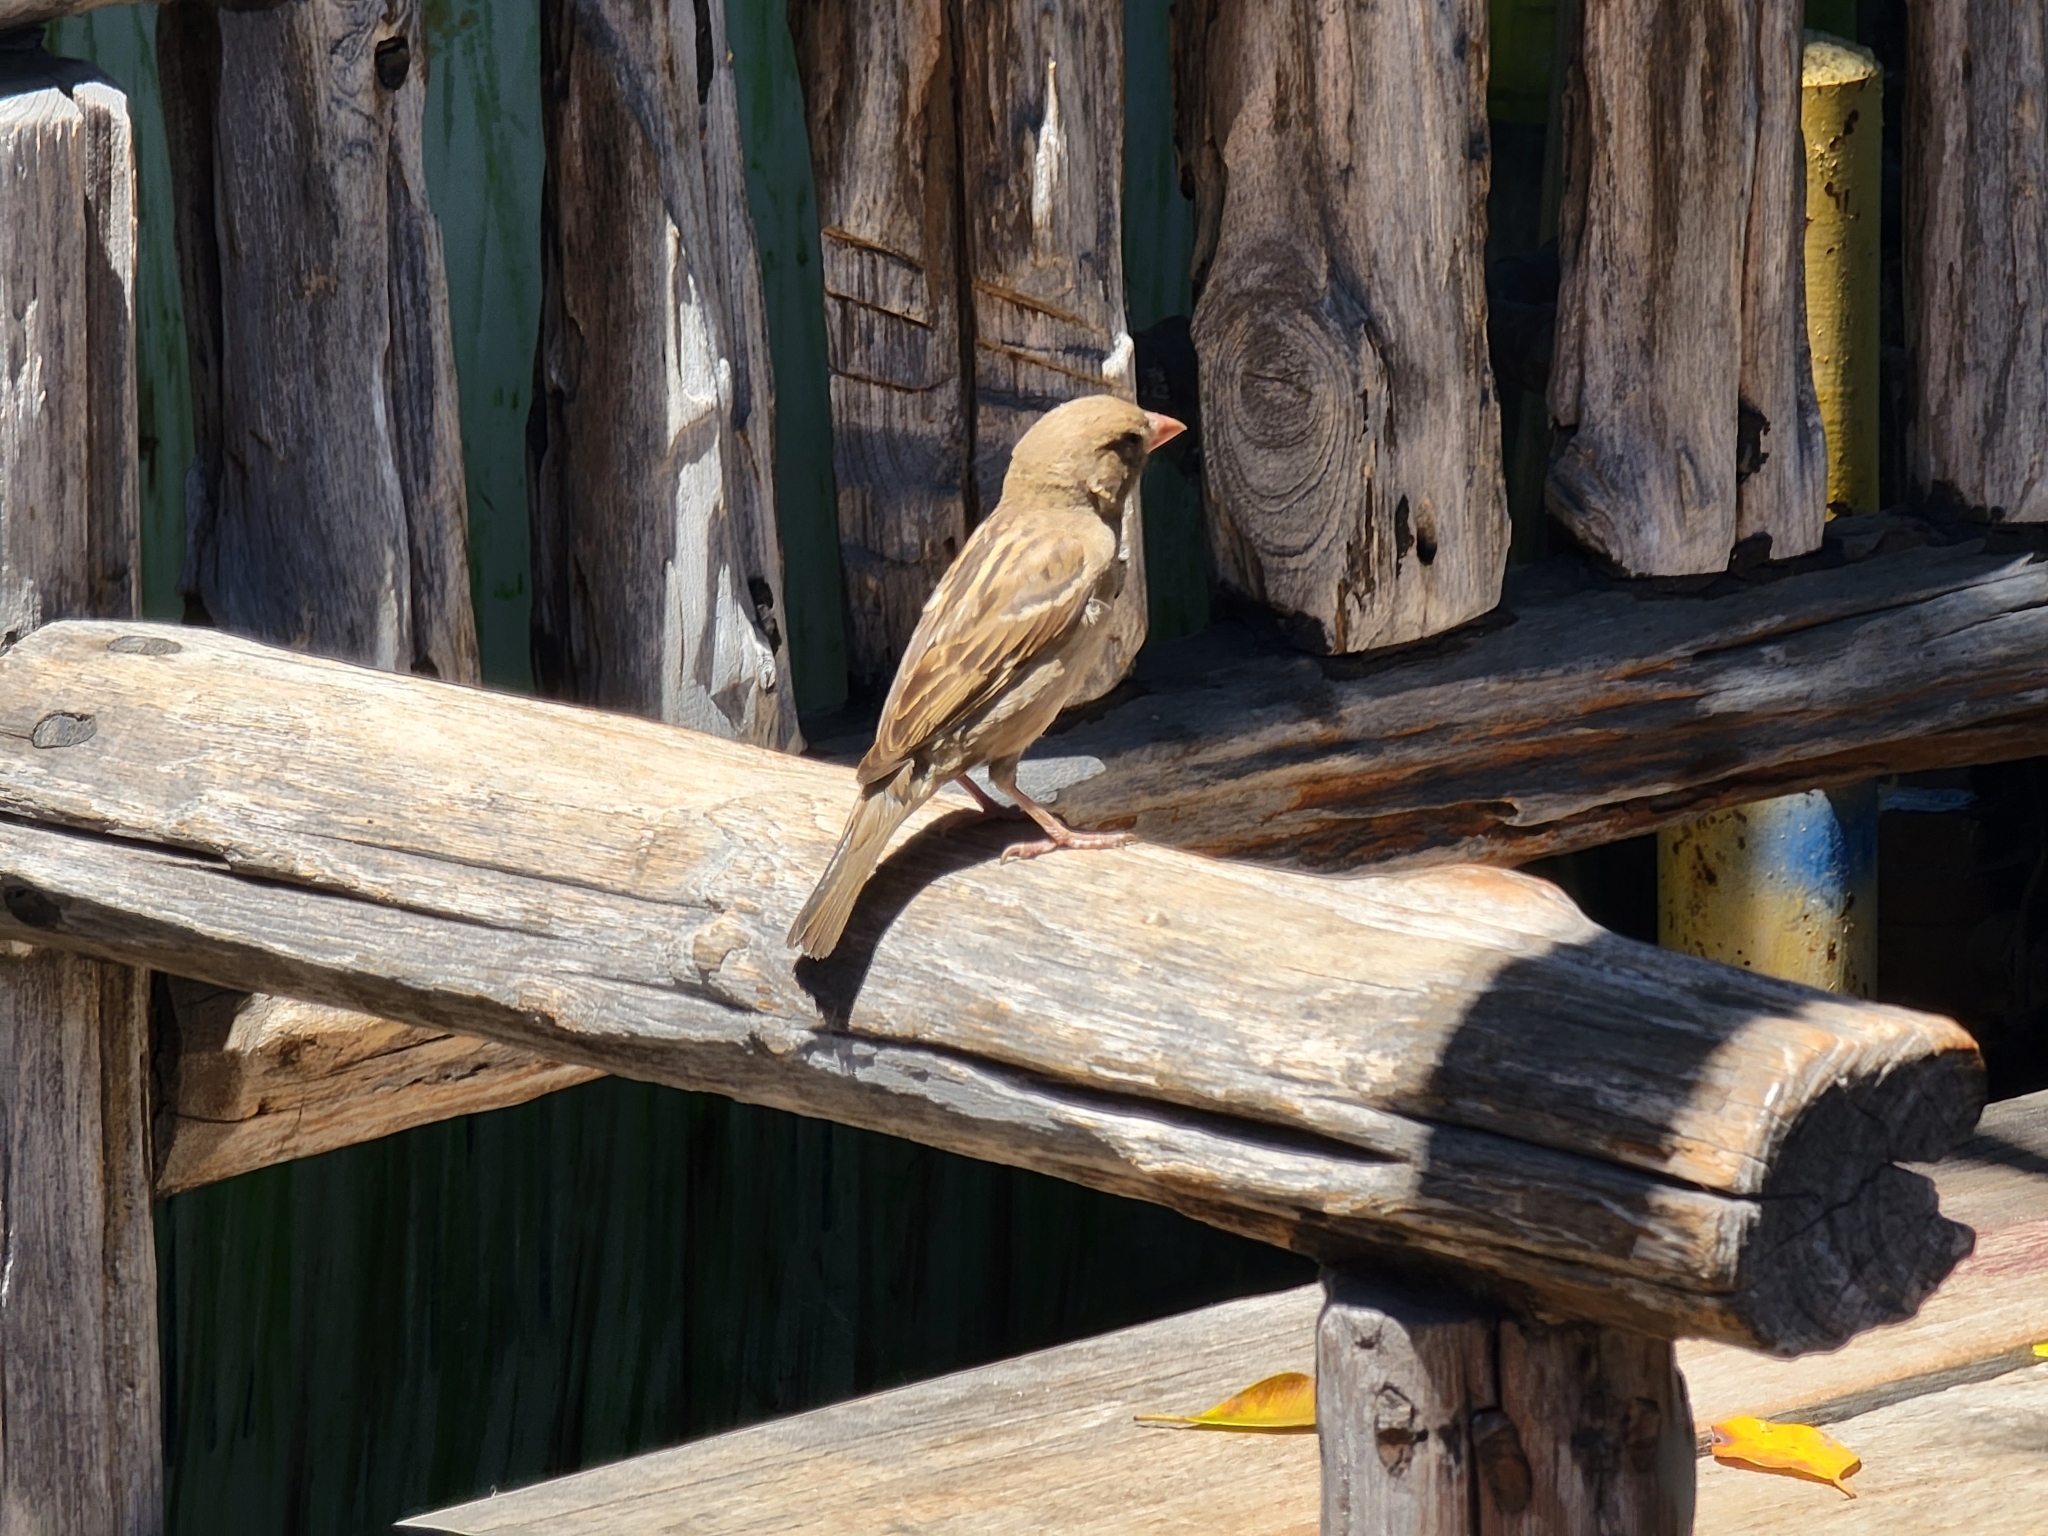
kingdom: Animalia
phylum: Chordata
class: Aves
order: Passeriformes
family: Passeridae
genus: Passer
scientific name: Passer domesticus
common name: House sparrow
